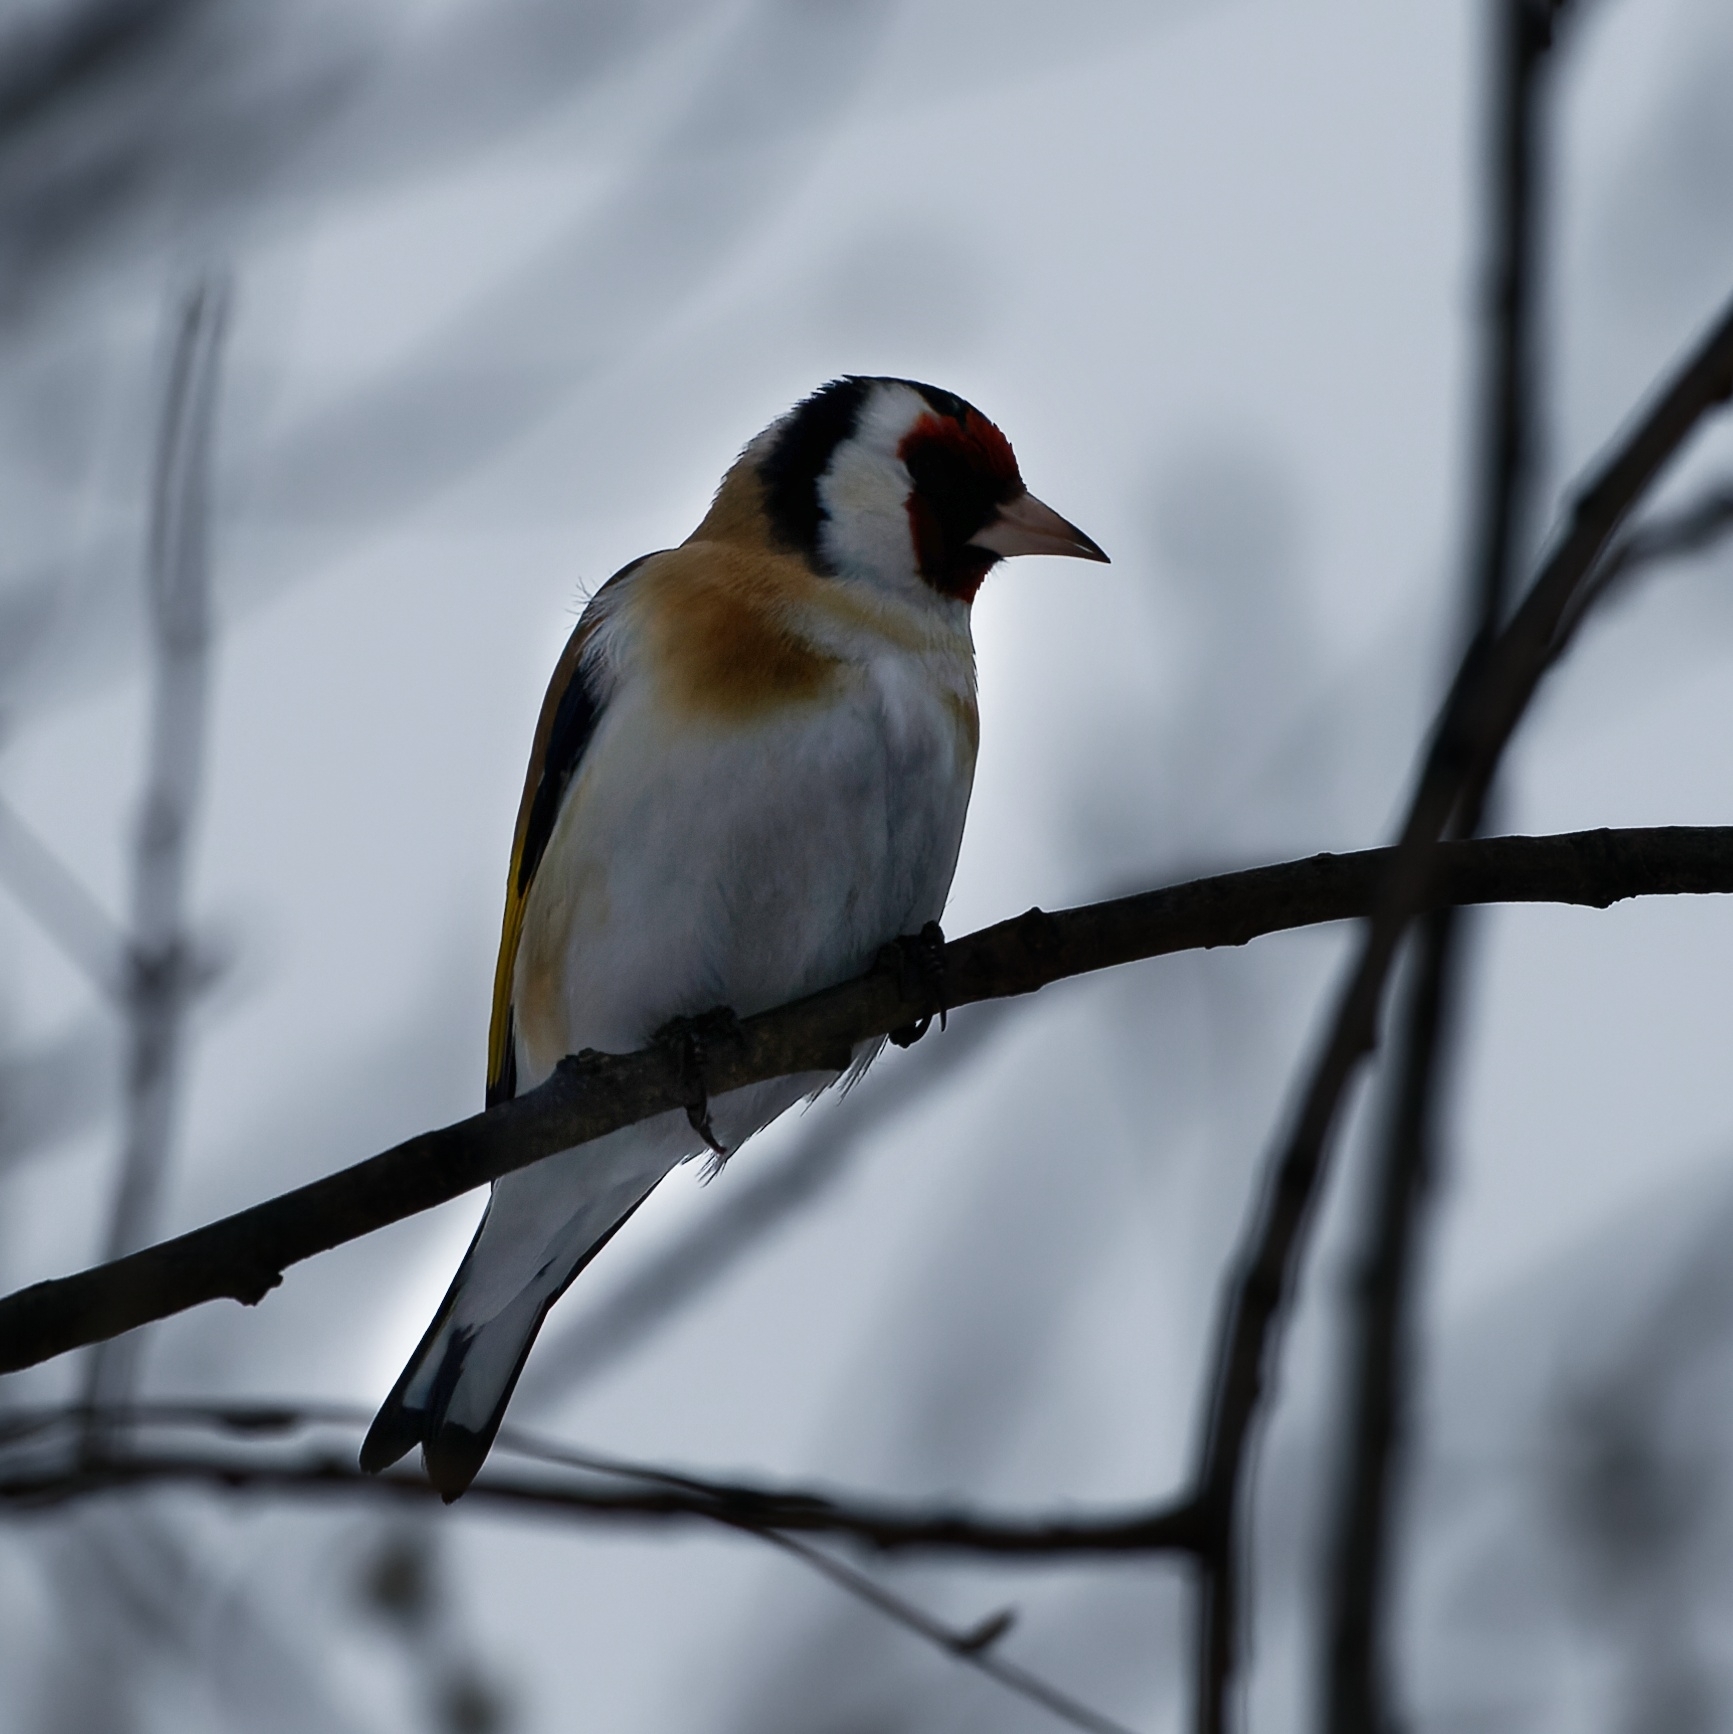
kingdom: Animalia
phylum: Chordata
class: Aves
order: Passeriformes
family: Fringillidae
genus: Carduelis
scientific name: Carduelis carduelis
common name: European goldfinch
